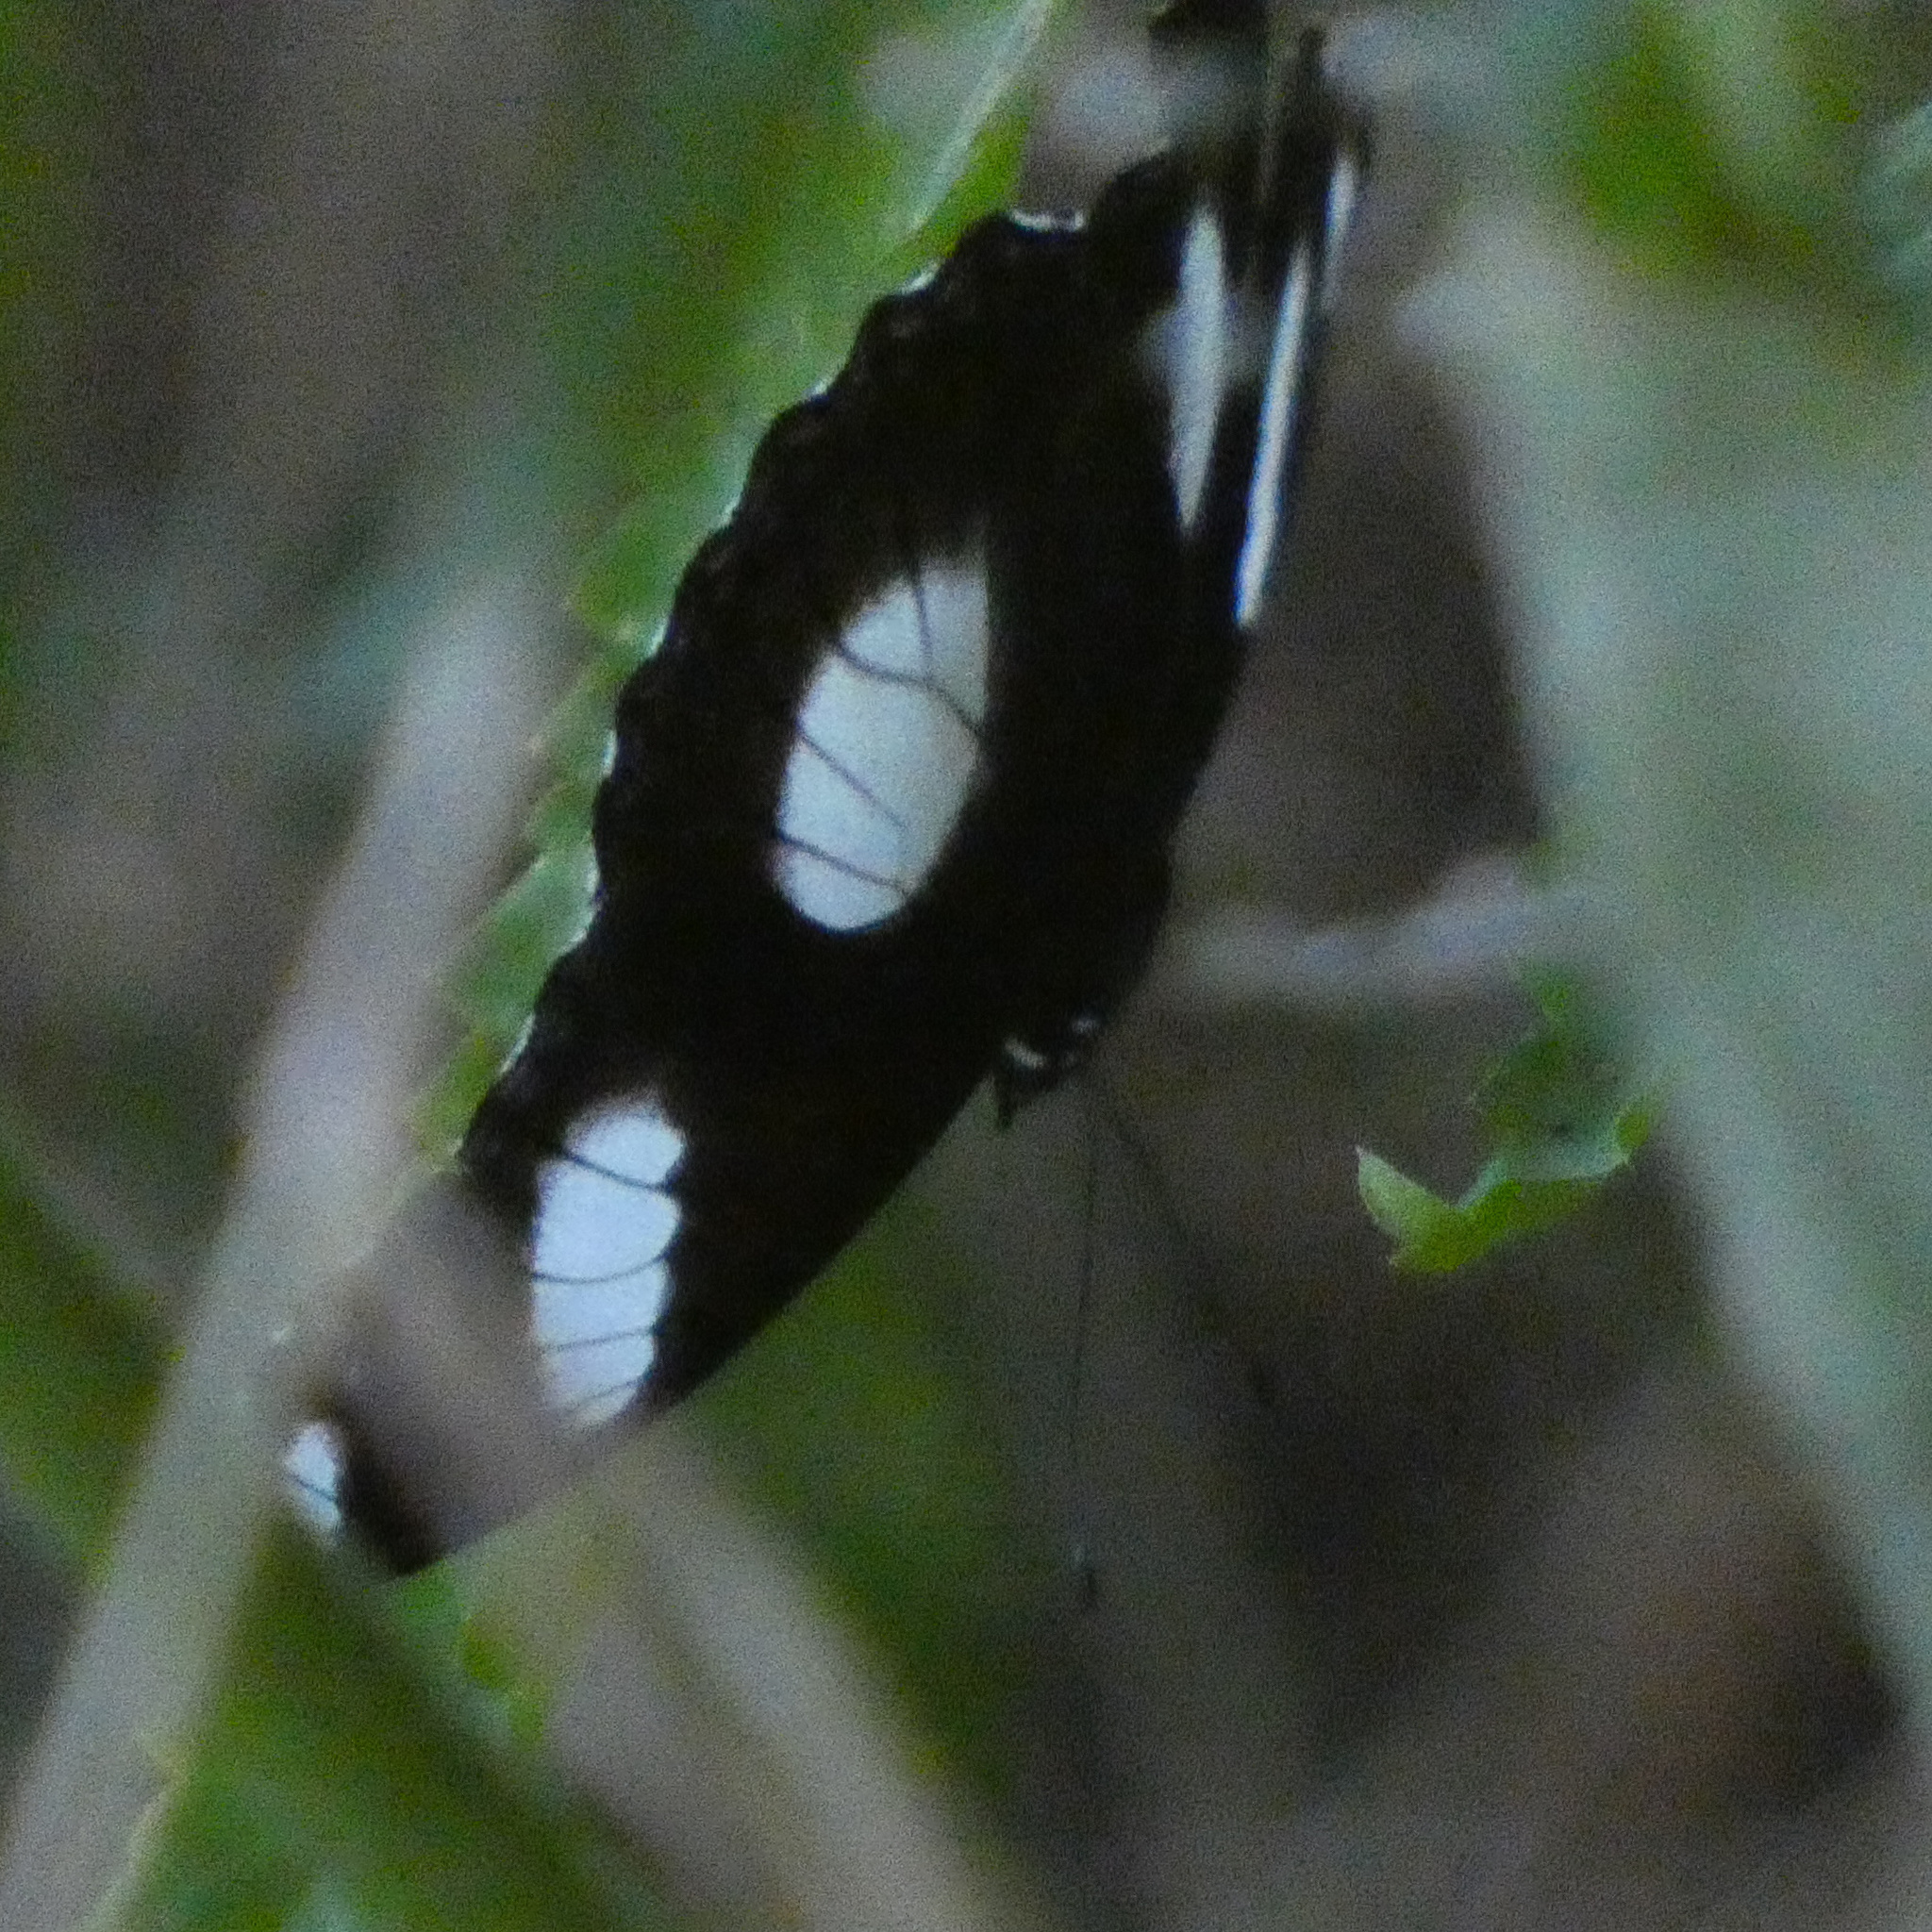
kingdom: Animalia
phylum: Arthropoda
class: Insecta
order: Lepidoptera
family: Nymphalidae
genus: Hypolimnas
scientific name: Hypolimnas misippus
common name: False plain tiger
